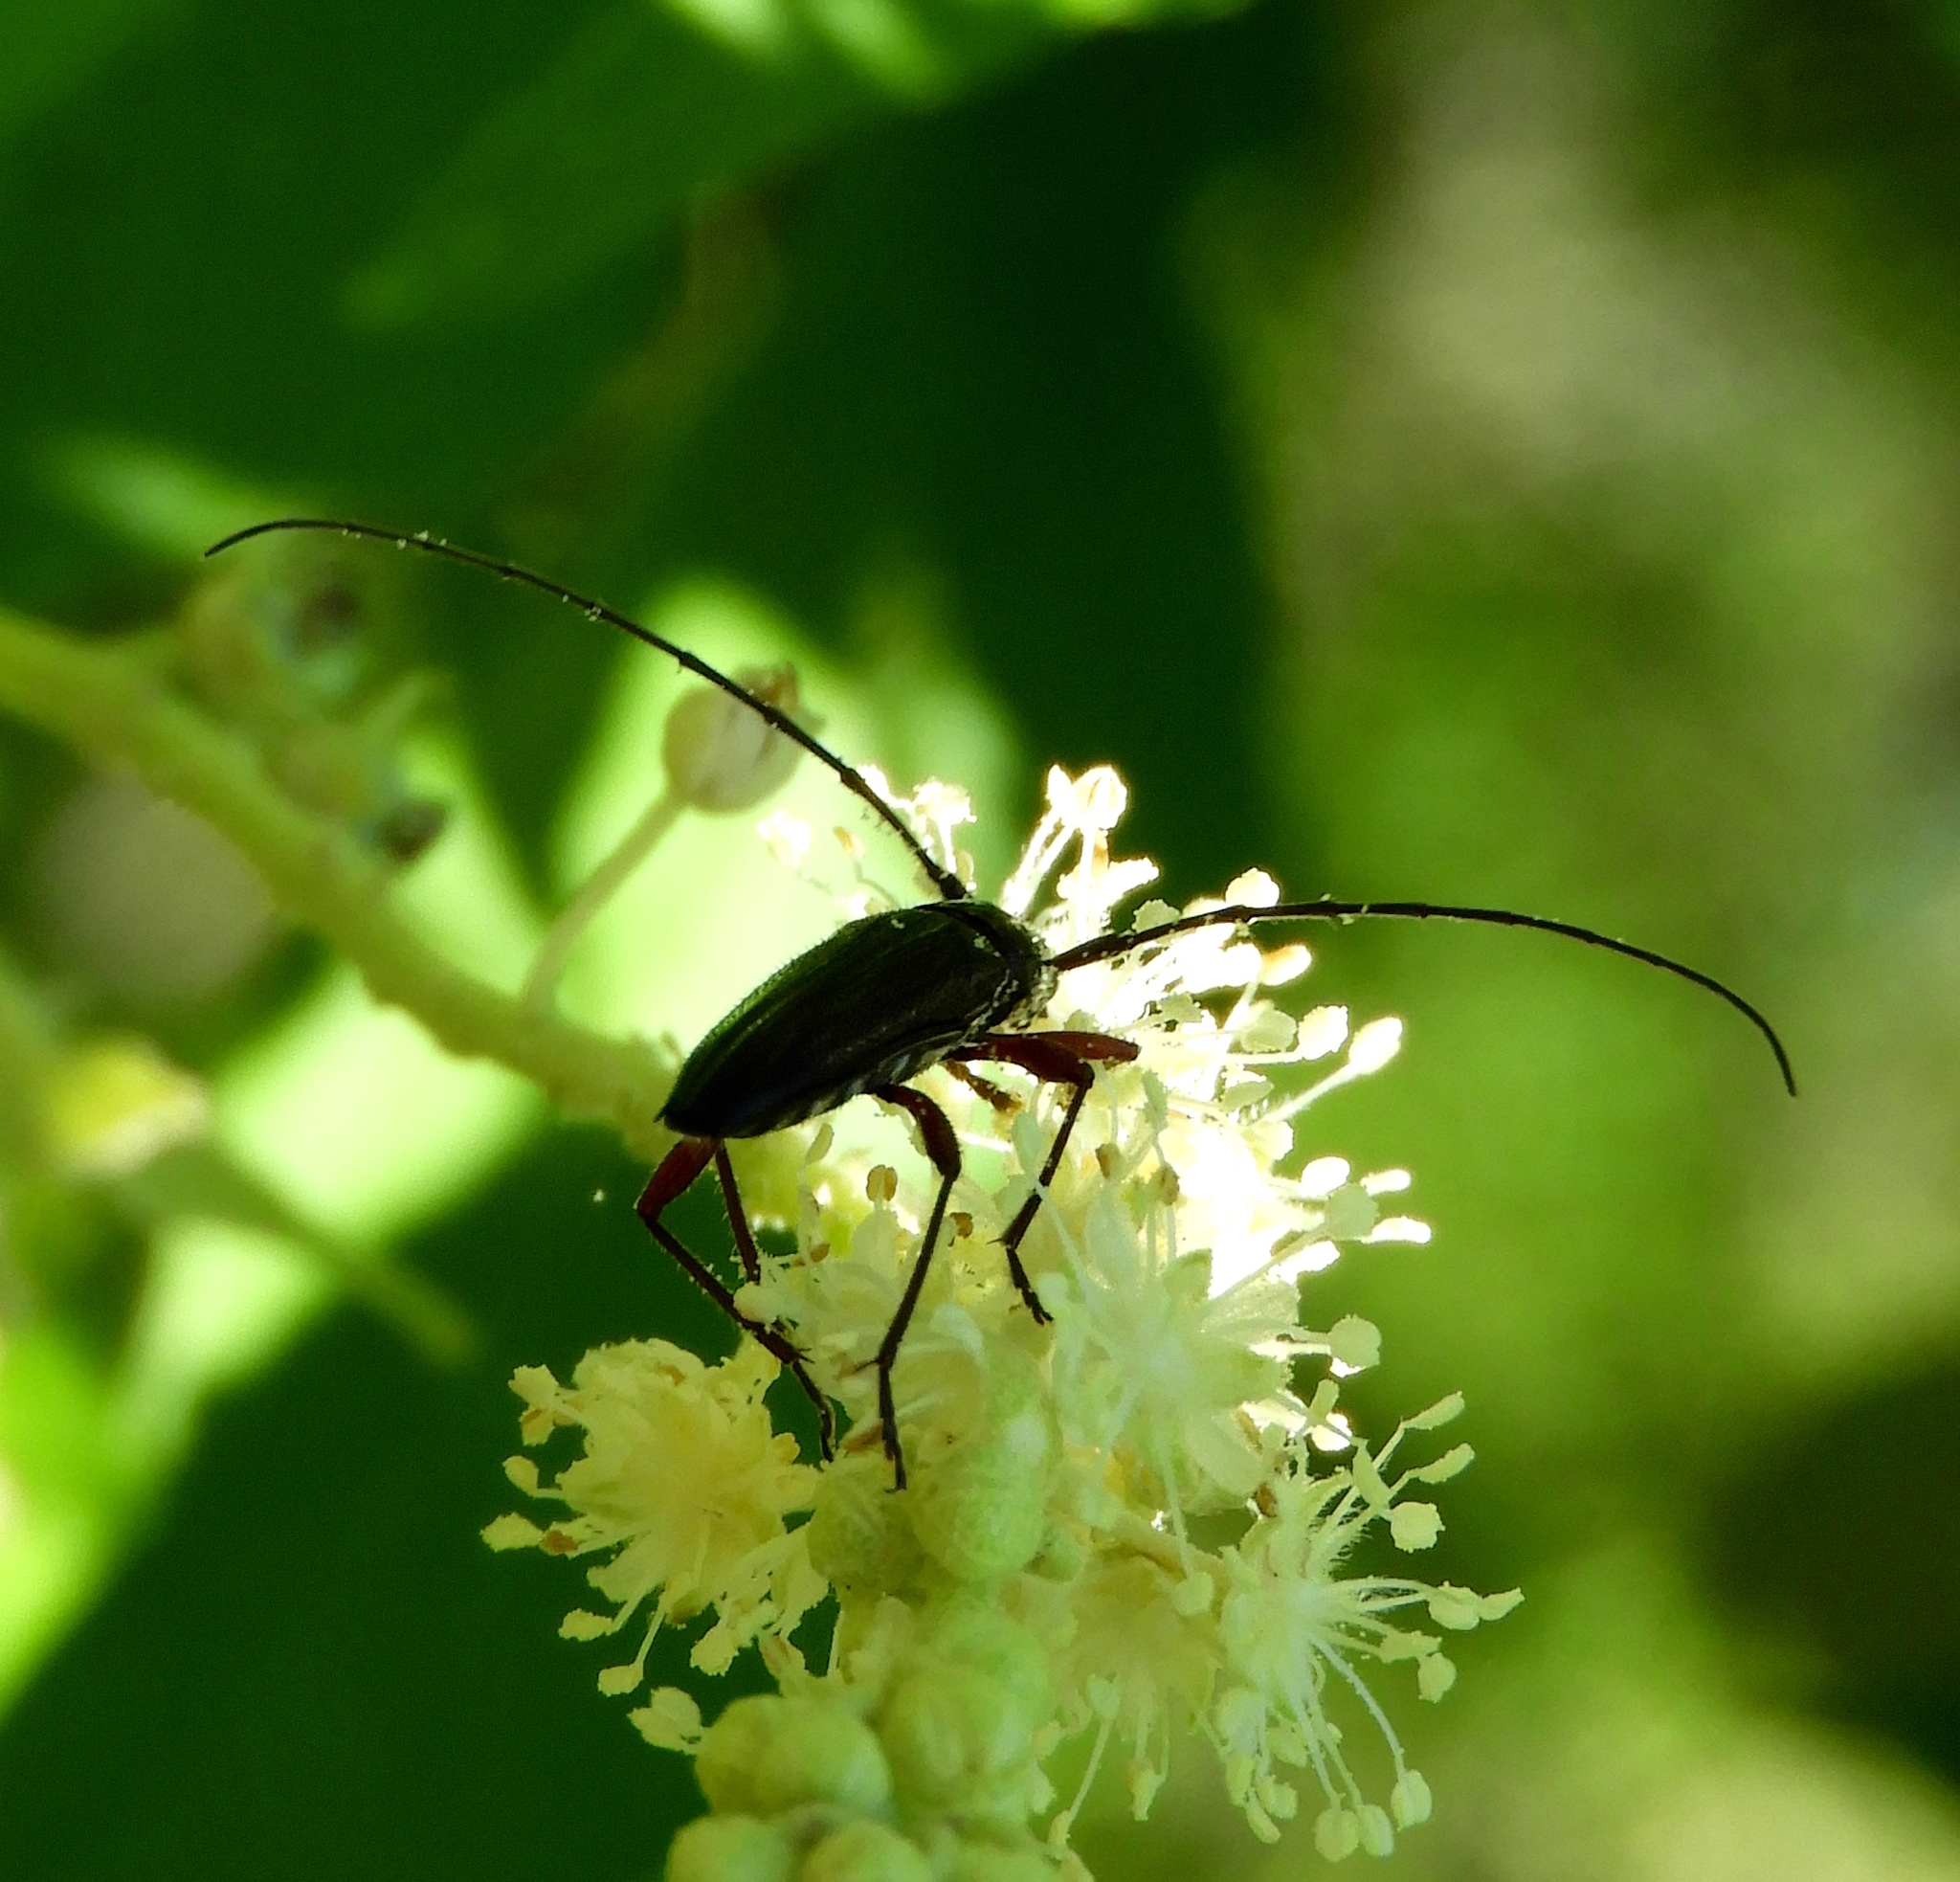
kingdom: Animalia
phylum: Arthropoda
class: Insecta
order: Coleoptera
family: Cerambycidae
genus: Stenosphenus
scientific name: Stenosphenus
